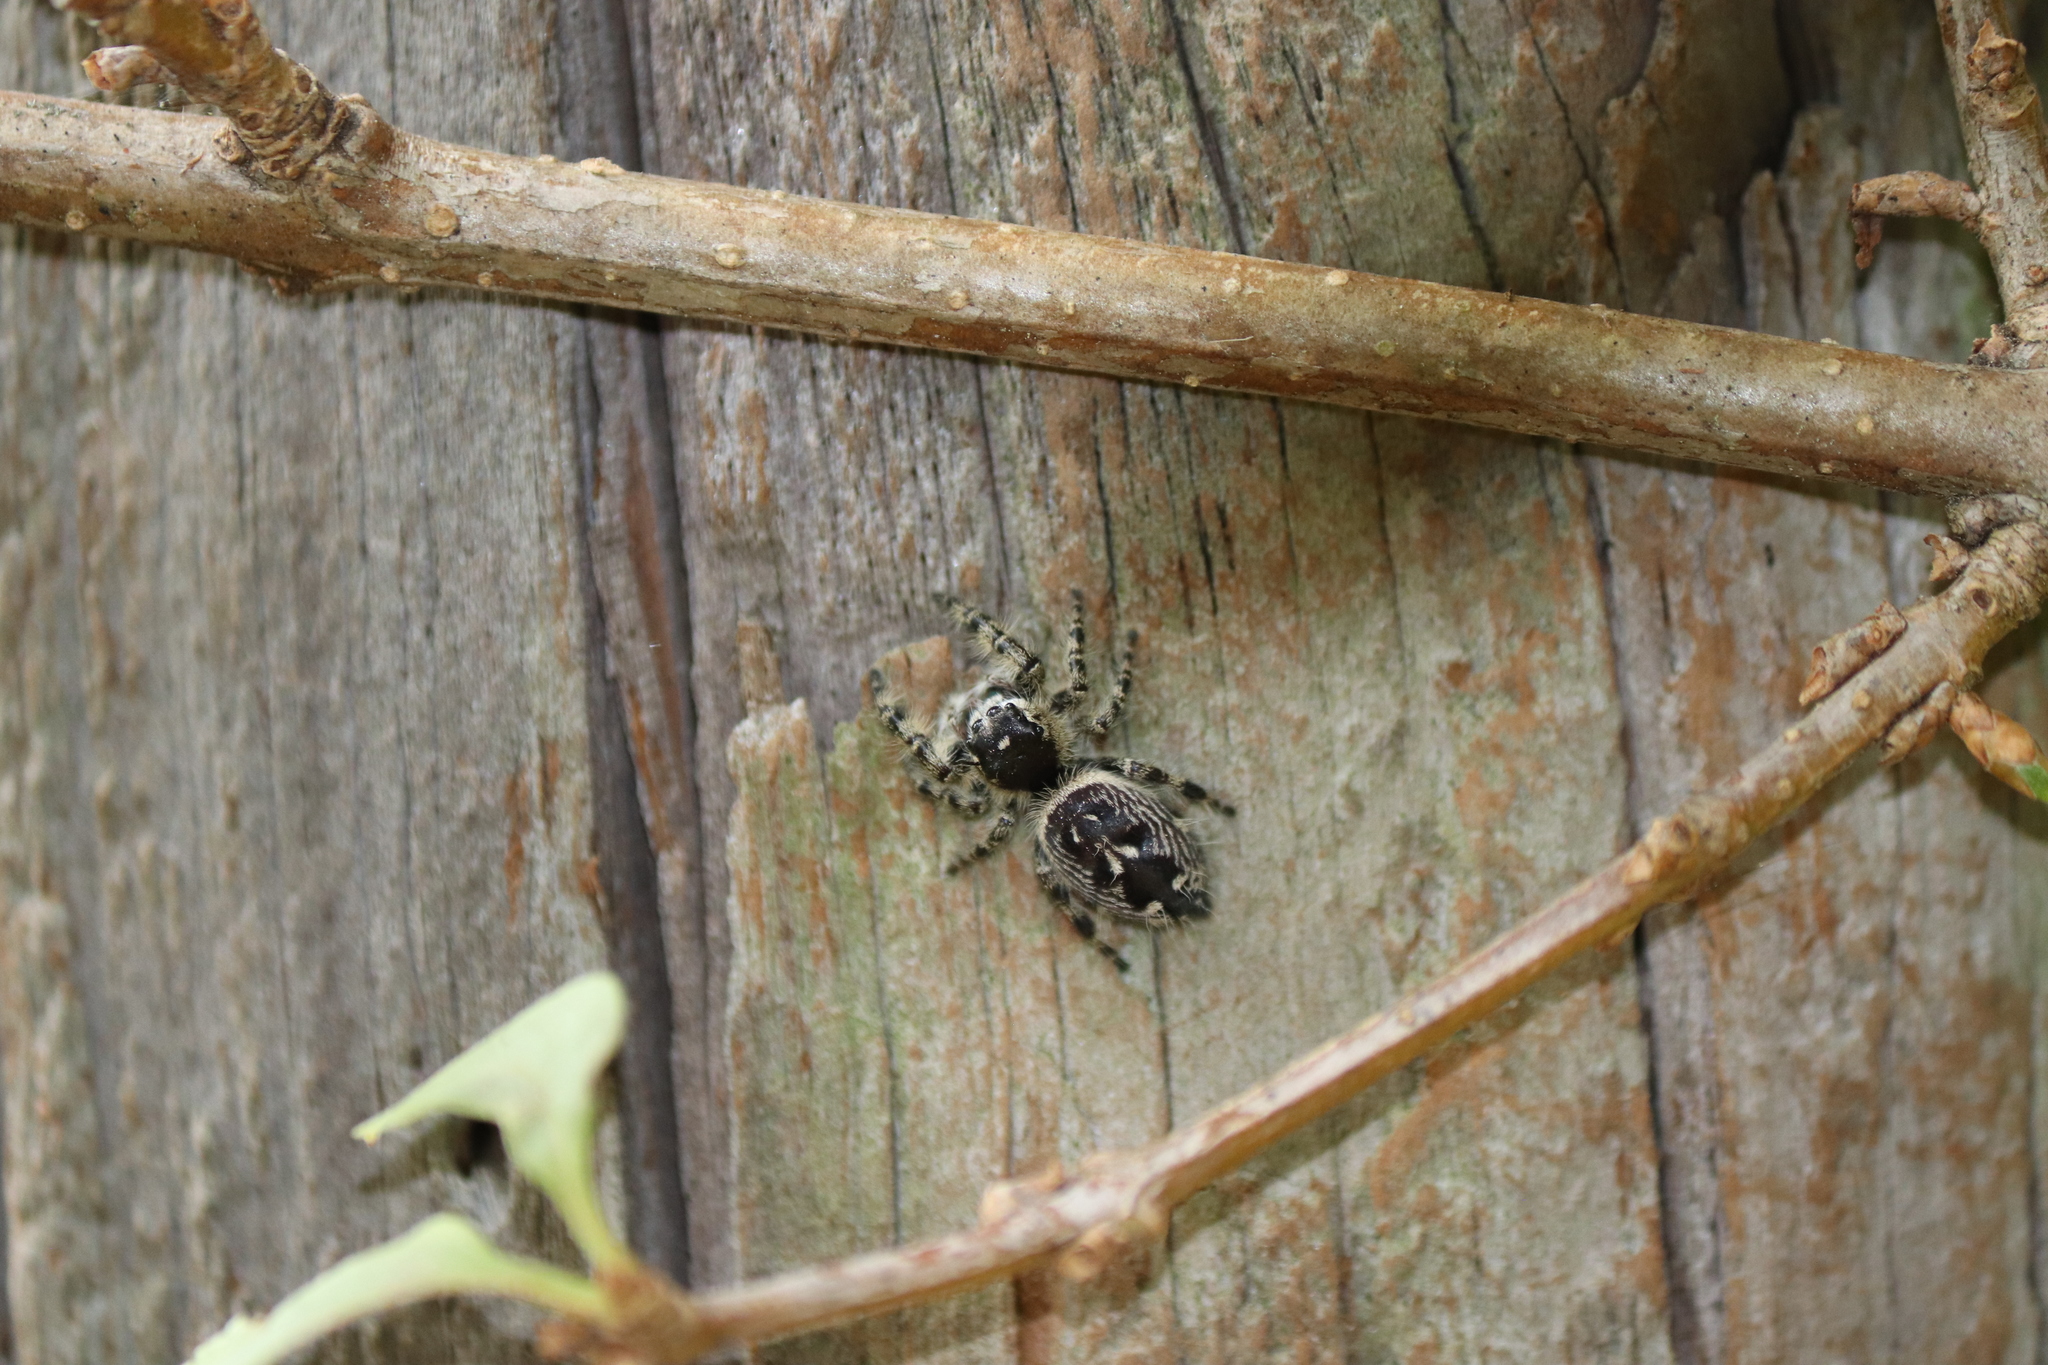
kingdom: Animalia
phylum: Arthropoda
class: Arachnida
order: Araneae
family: Salticidae
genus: Phidippus
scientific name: Phidippus otiosus
